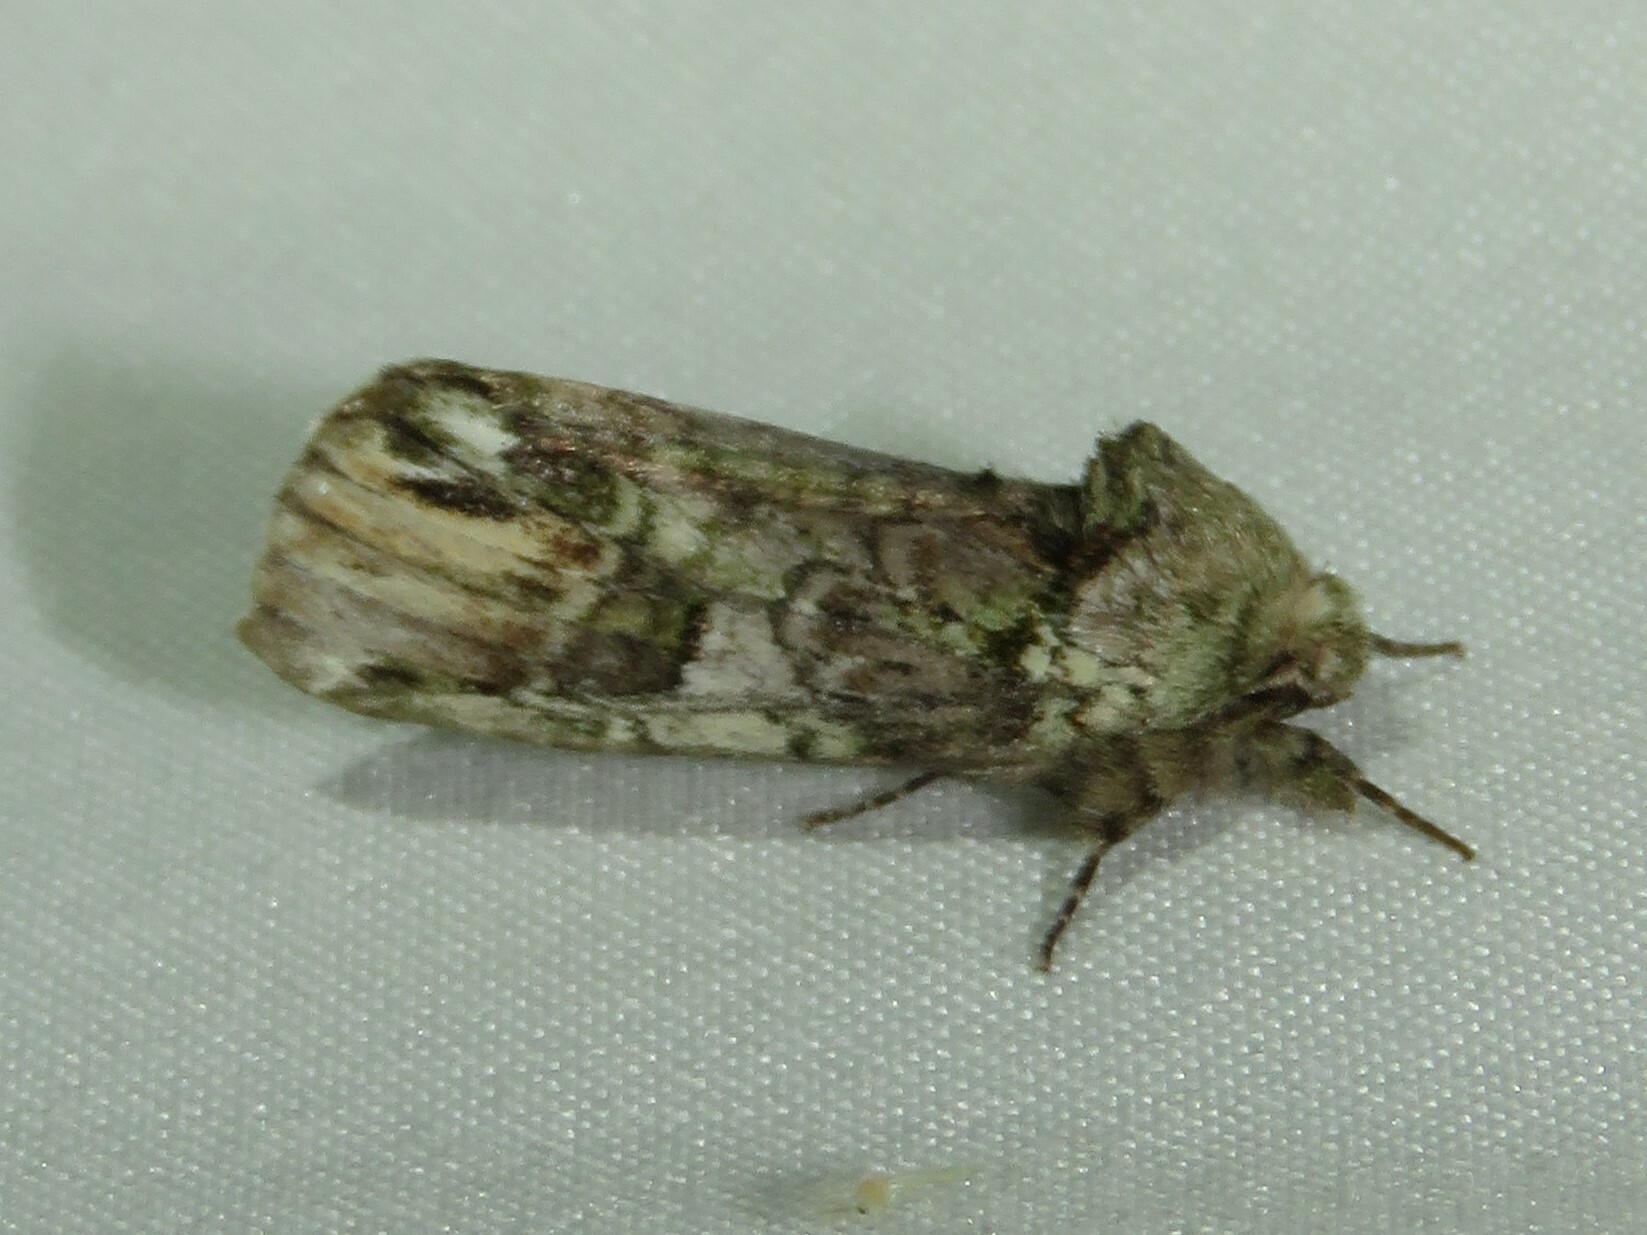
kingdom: Animalia
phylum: Arthropoda
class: Insecta
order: Lepidoptera
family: Notodontidae
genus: Schizura
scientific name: Schizura
